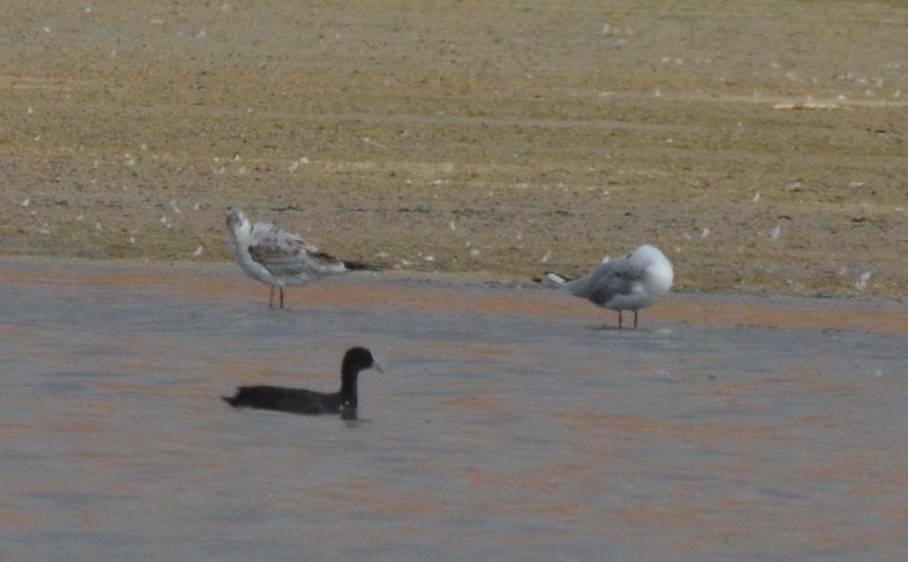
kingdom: Animalia
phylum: Chordata
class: Aves
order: Gruiformes
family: Rallidae
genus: Fulica
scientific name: Fulica atra
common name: Eurasian coot
